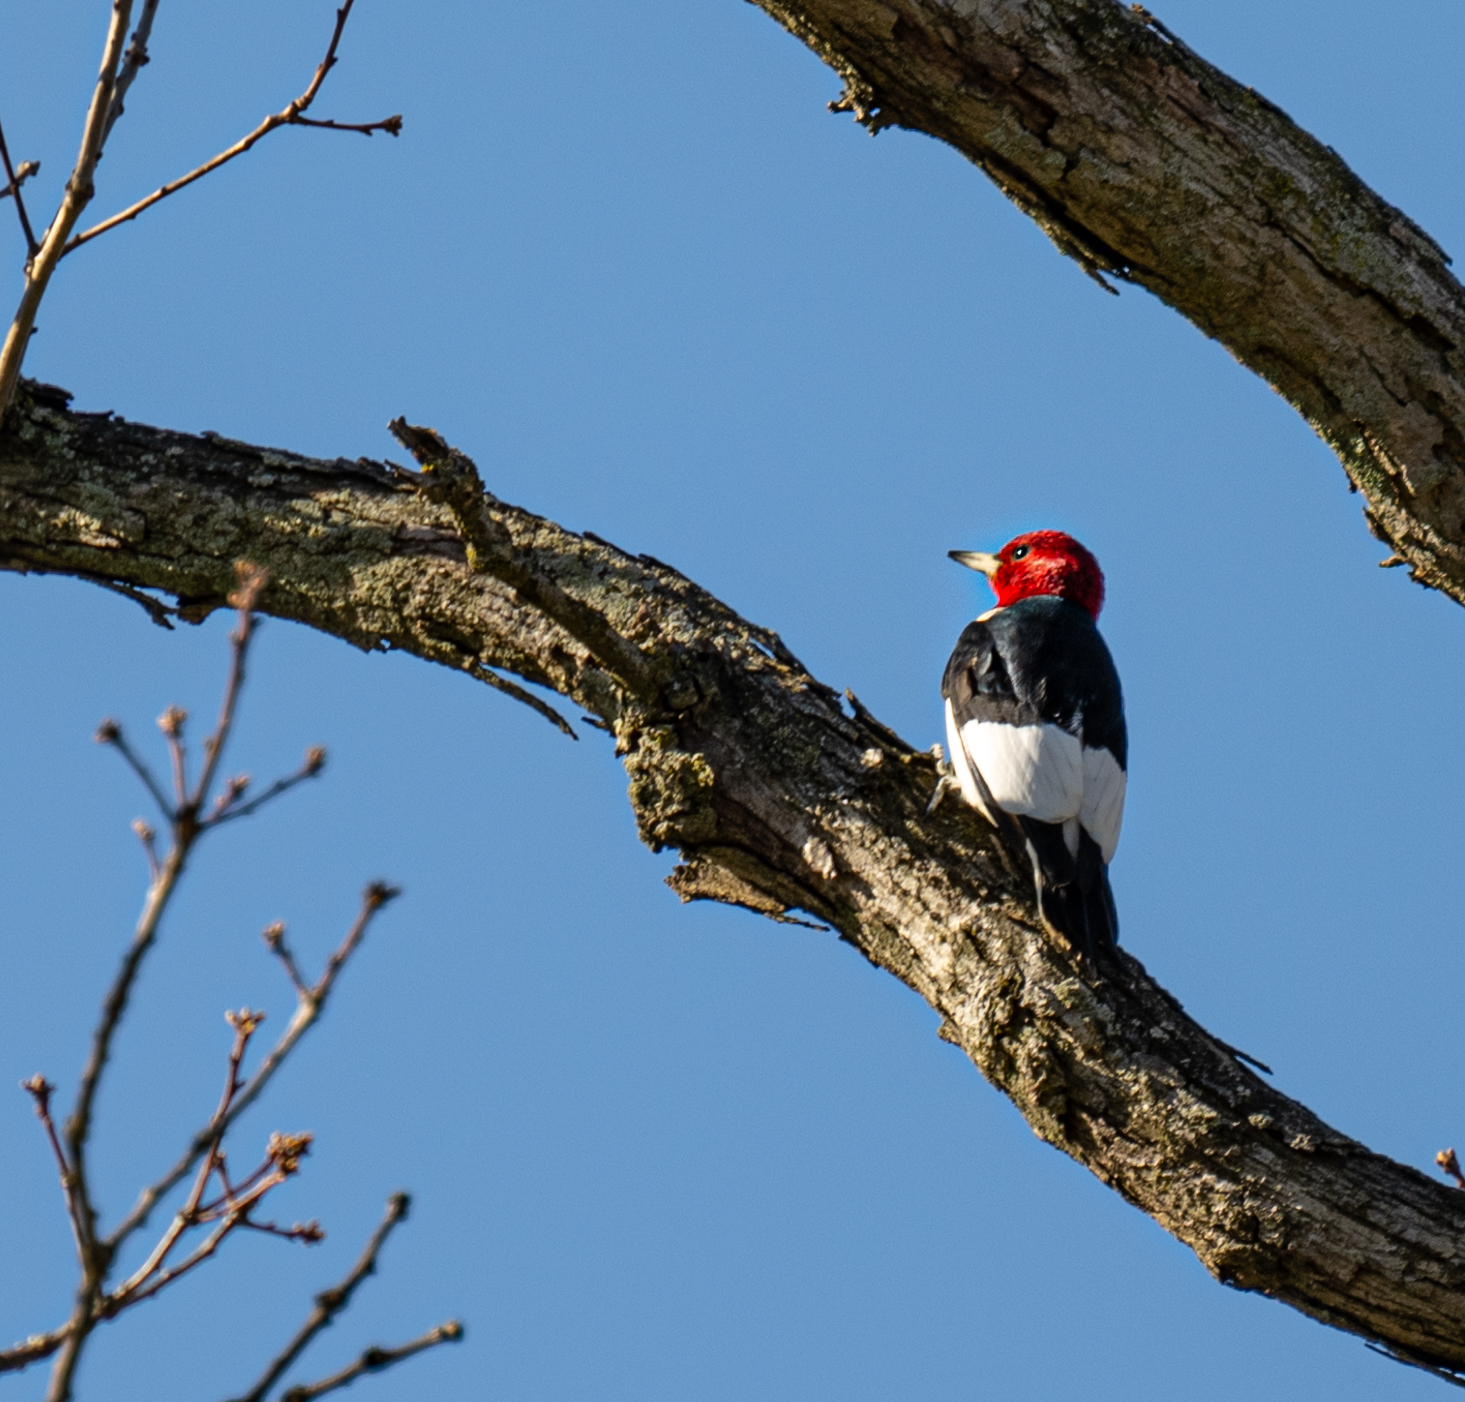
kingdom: Animalia
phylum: Chordata
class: Aves
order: Piciformes
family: Picidae
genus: Melanerpes
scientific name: Melanerpes erythrocephalus
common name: Red-headed woodpecker
